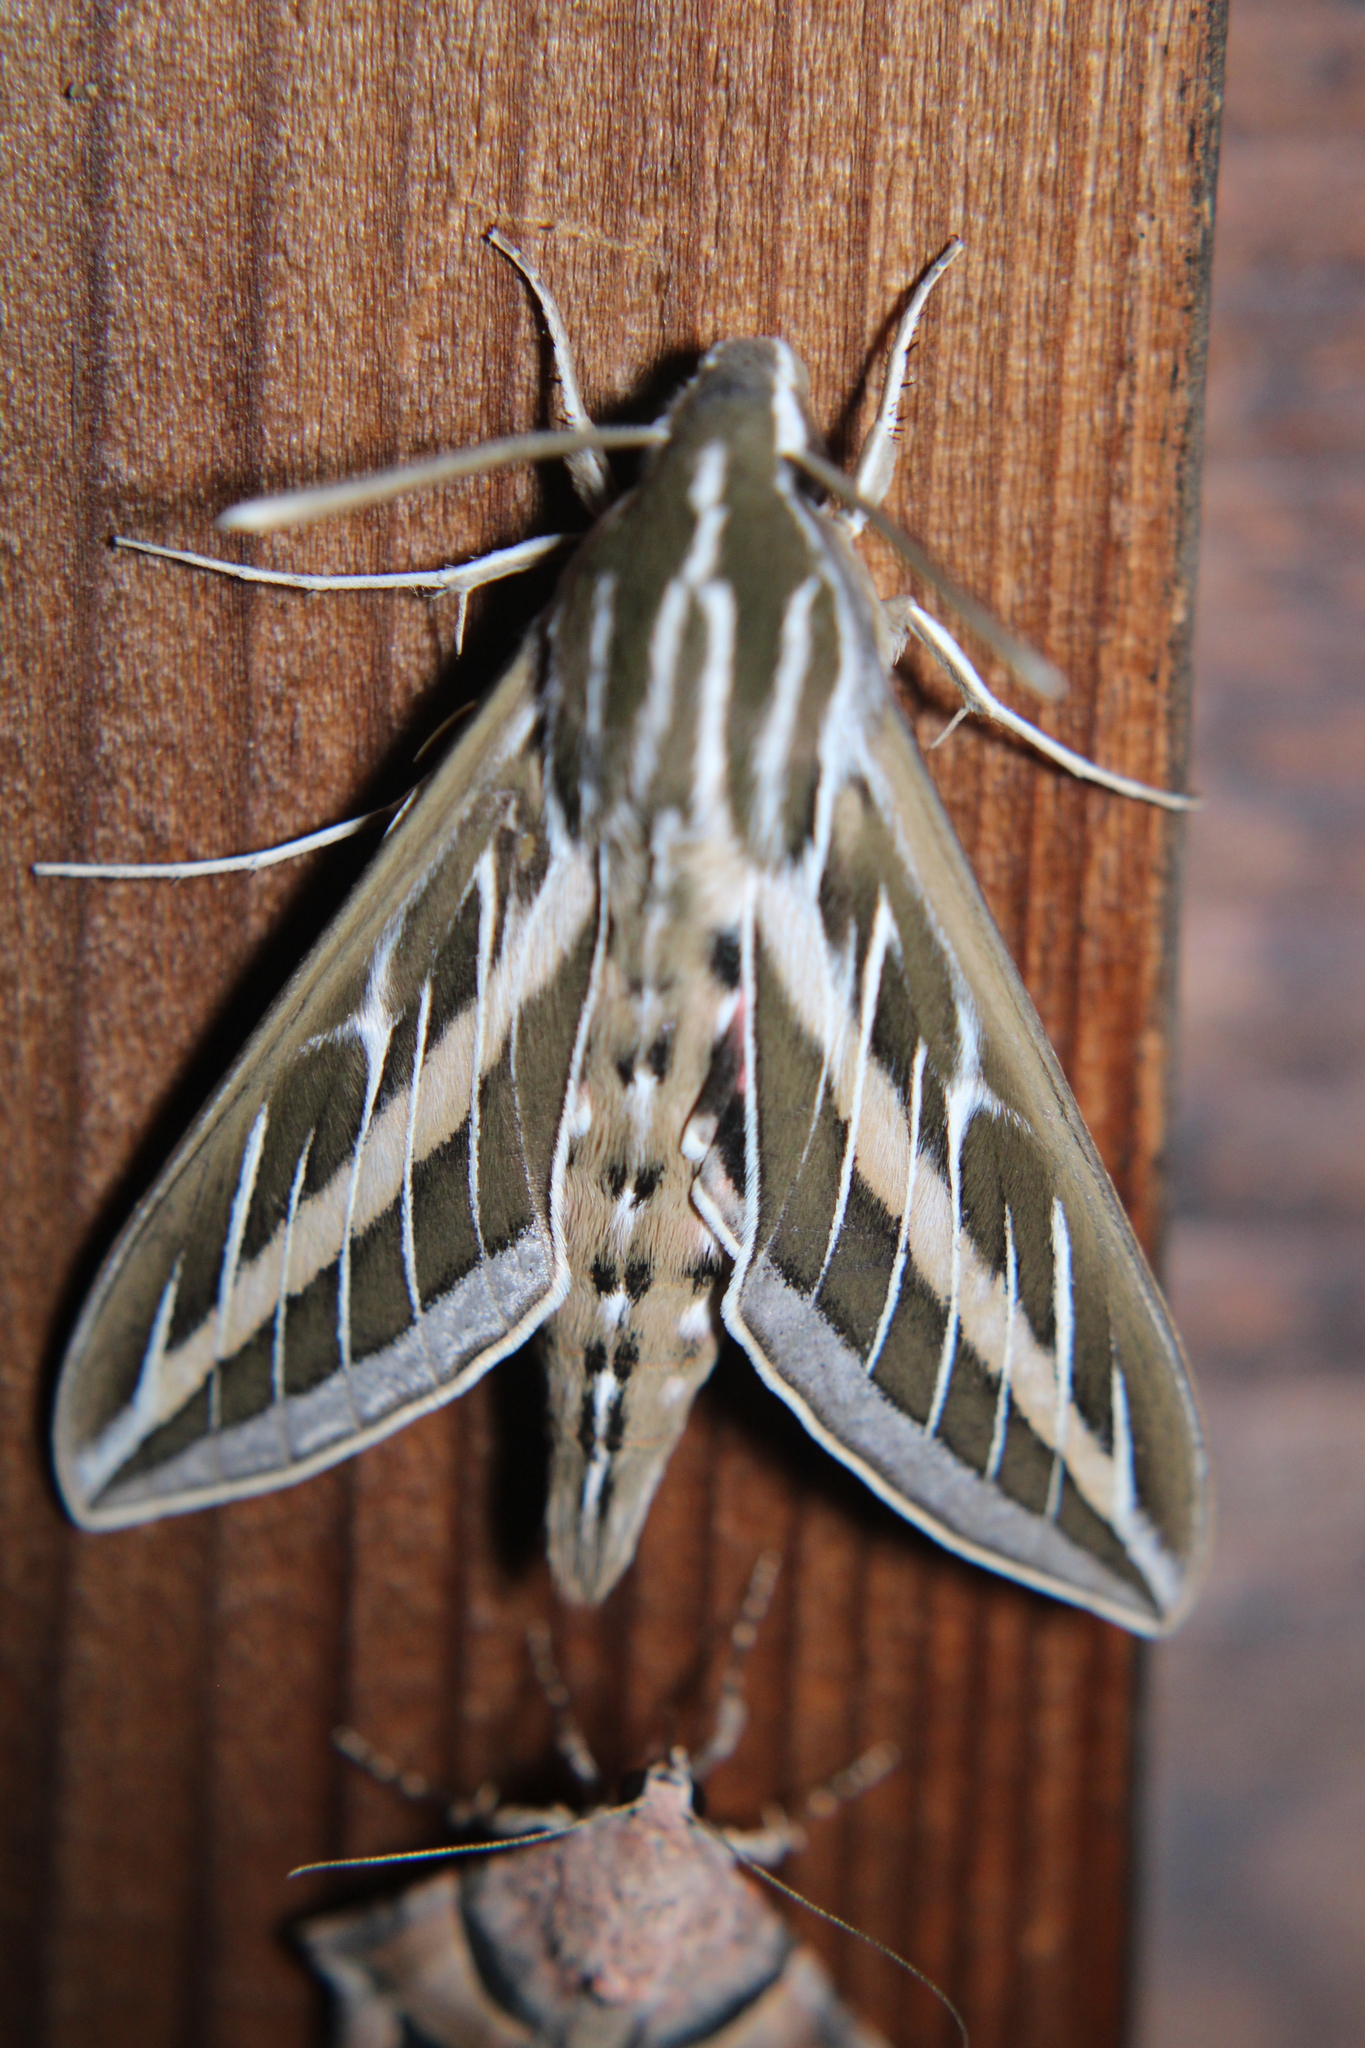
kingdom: Animalia
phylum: Arthropoda
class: Insecta
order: Lepidoptera
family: Sphingidae
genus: Hyles
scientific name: Hyles lineata
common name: White-lined sphinx
